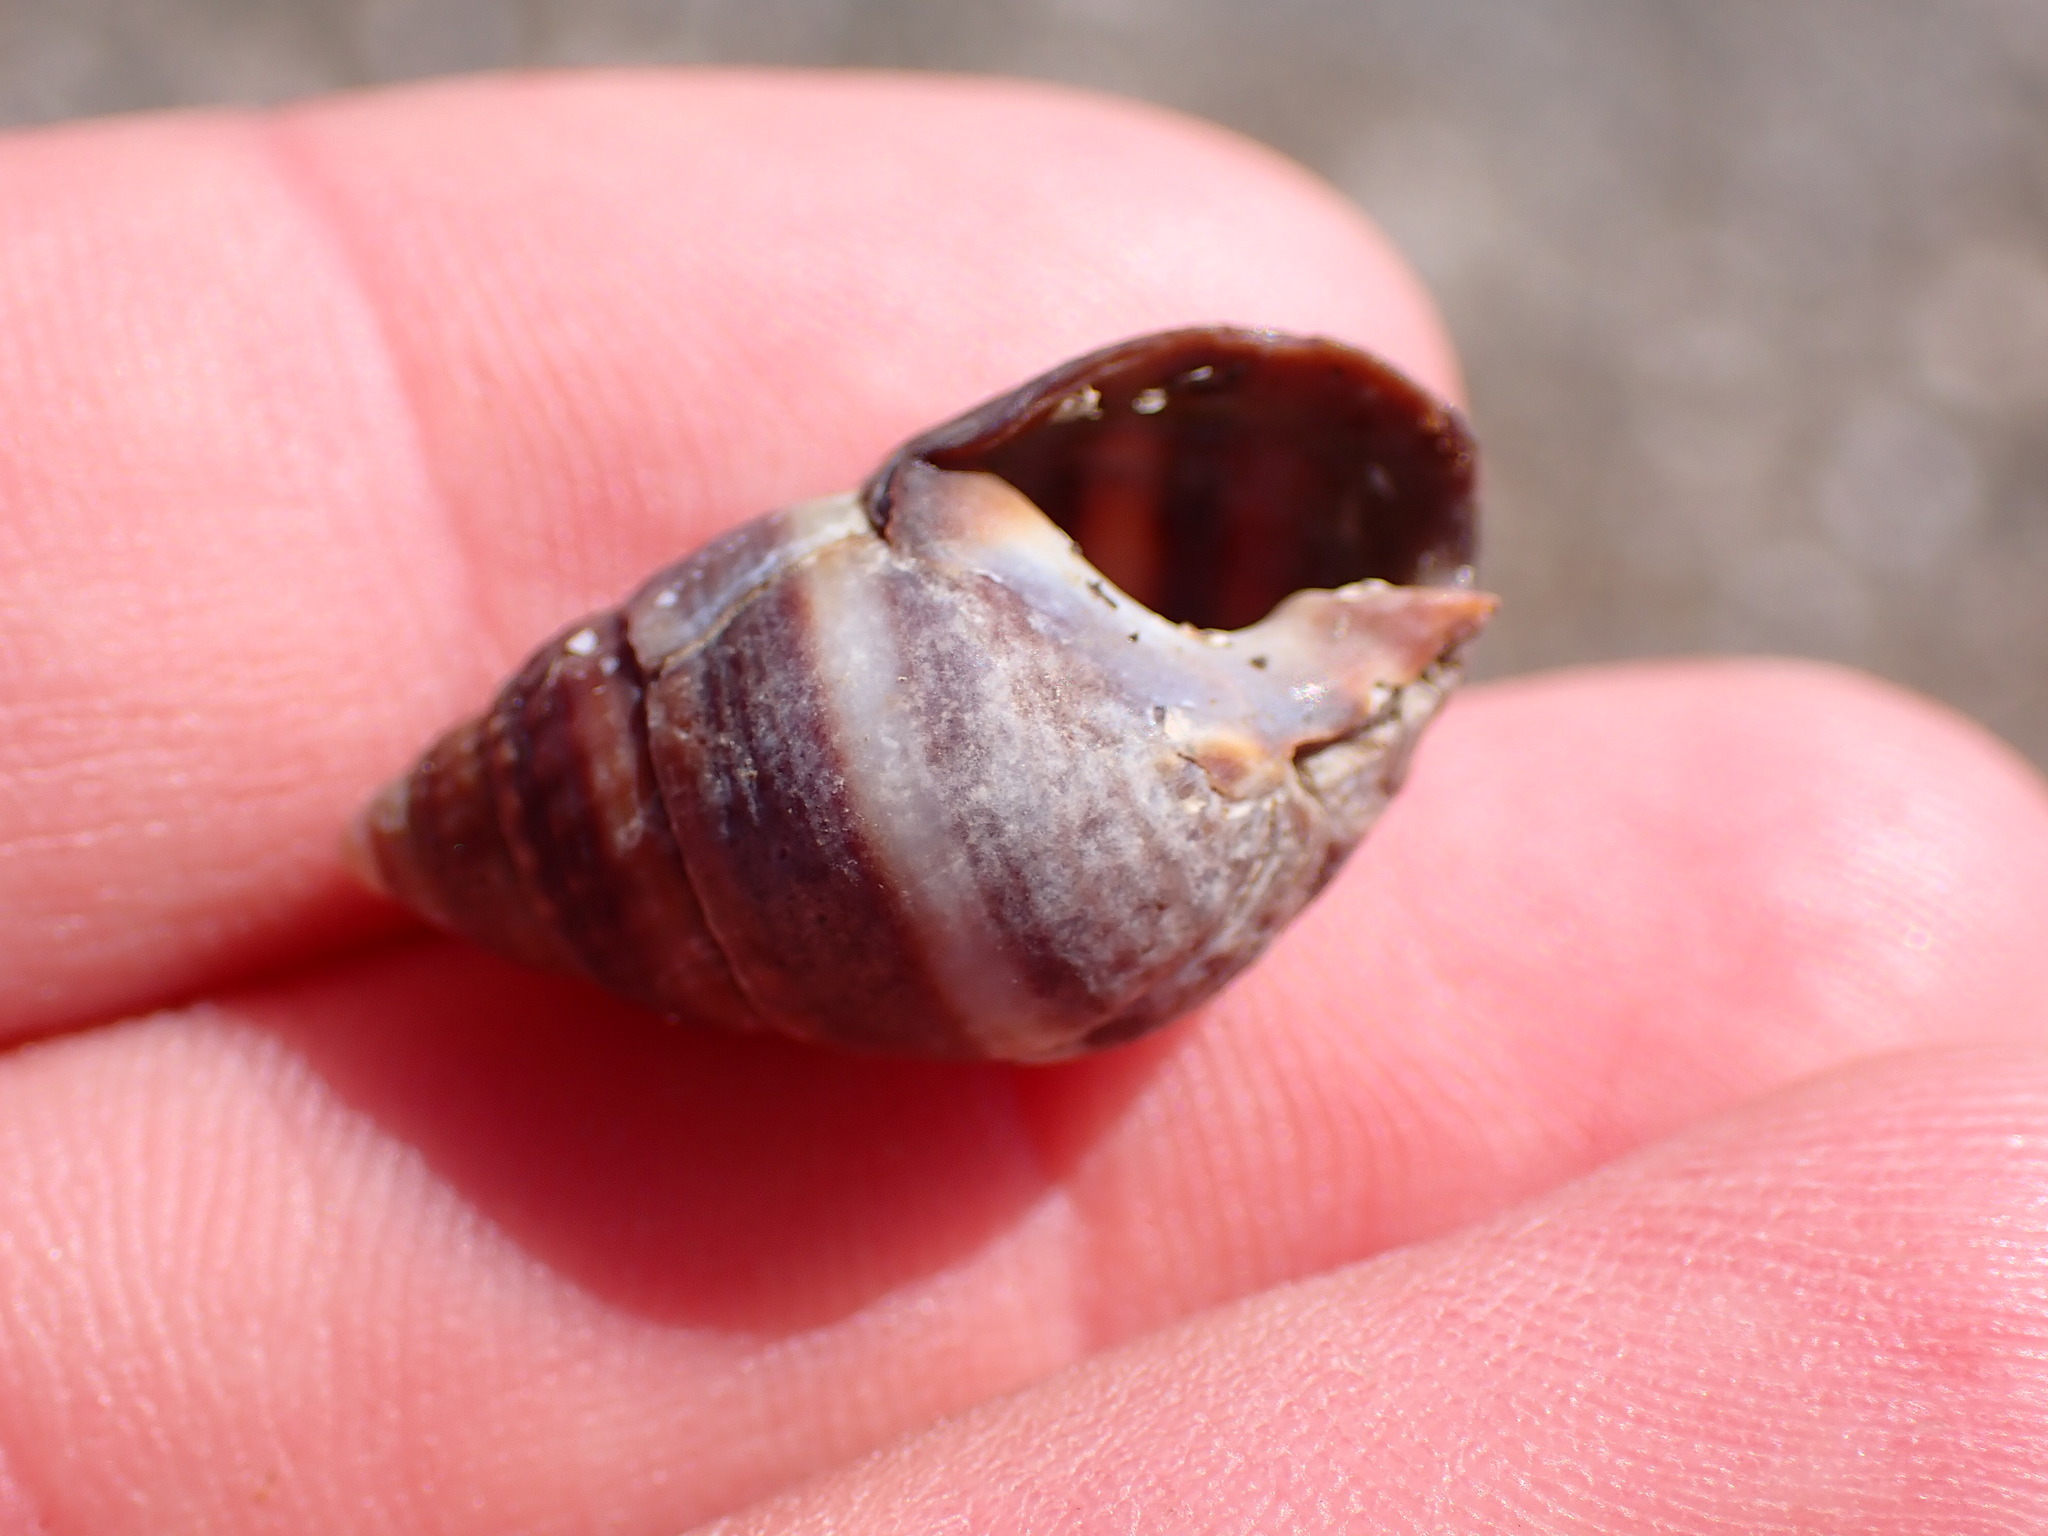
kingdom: Animalia
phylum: Mollusca
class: Gastropoda
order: Neogastropoda
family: Nassariidae
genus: Ilyanassa
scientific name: Ilyanassa obsoleta
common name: Eastern mudsnail
